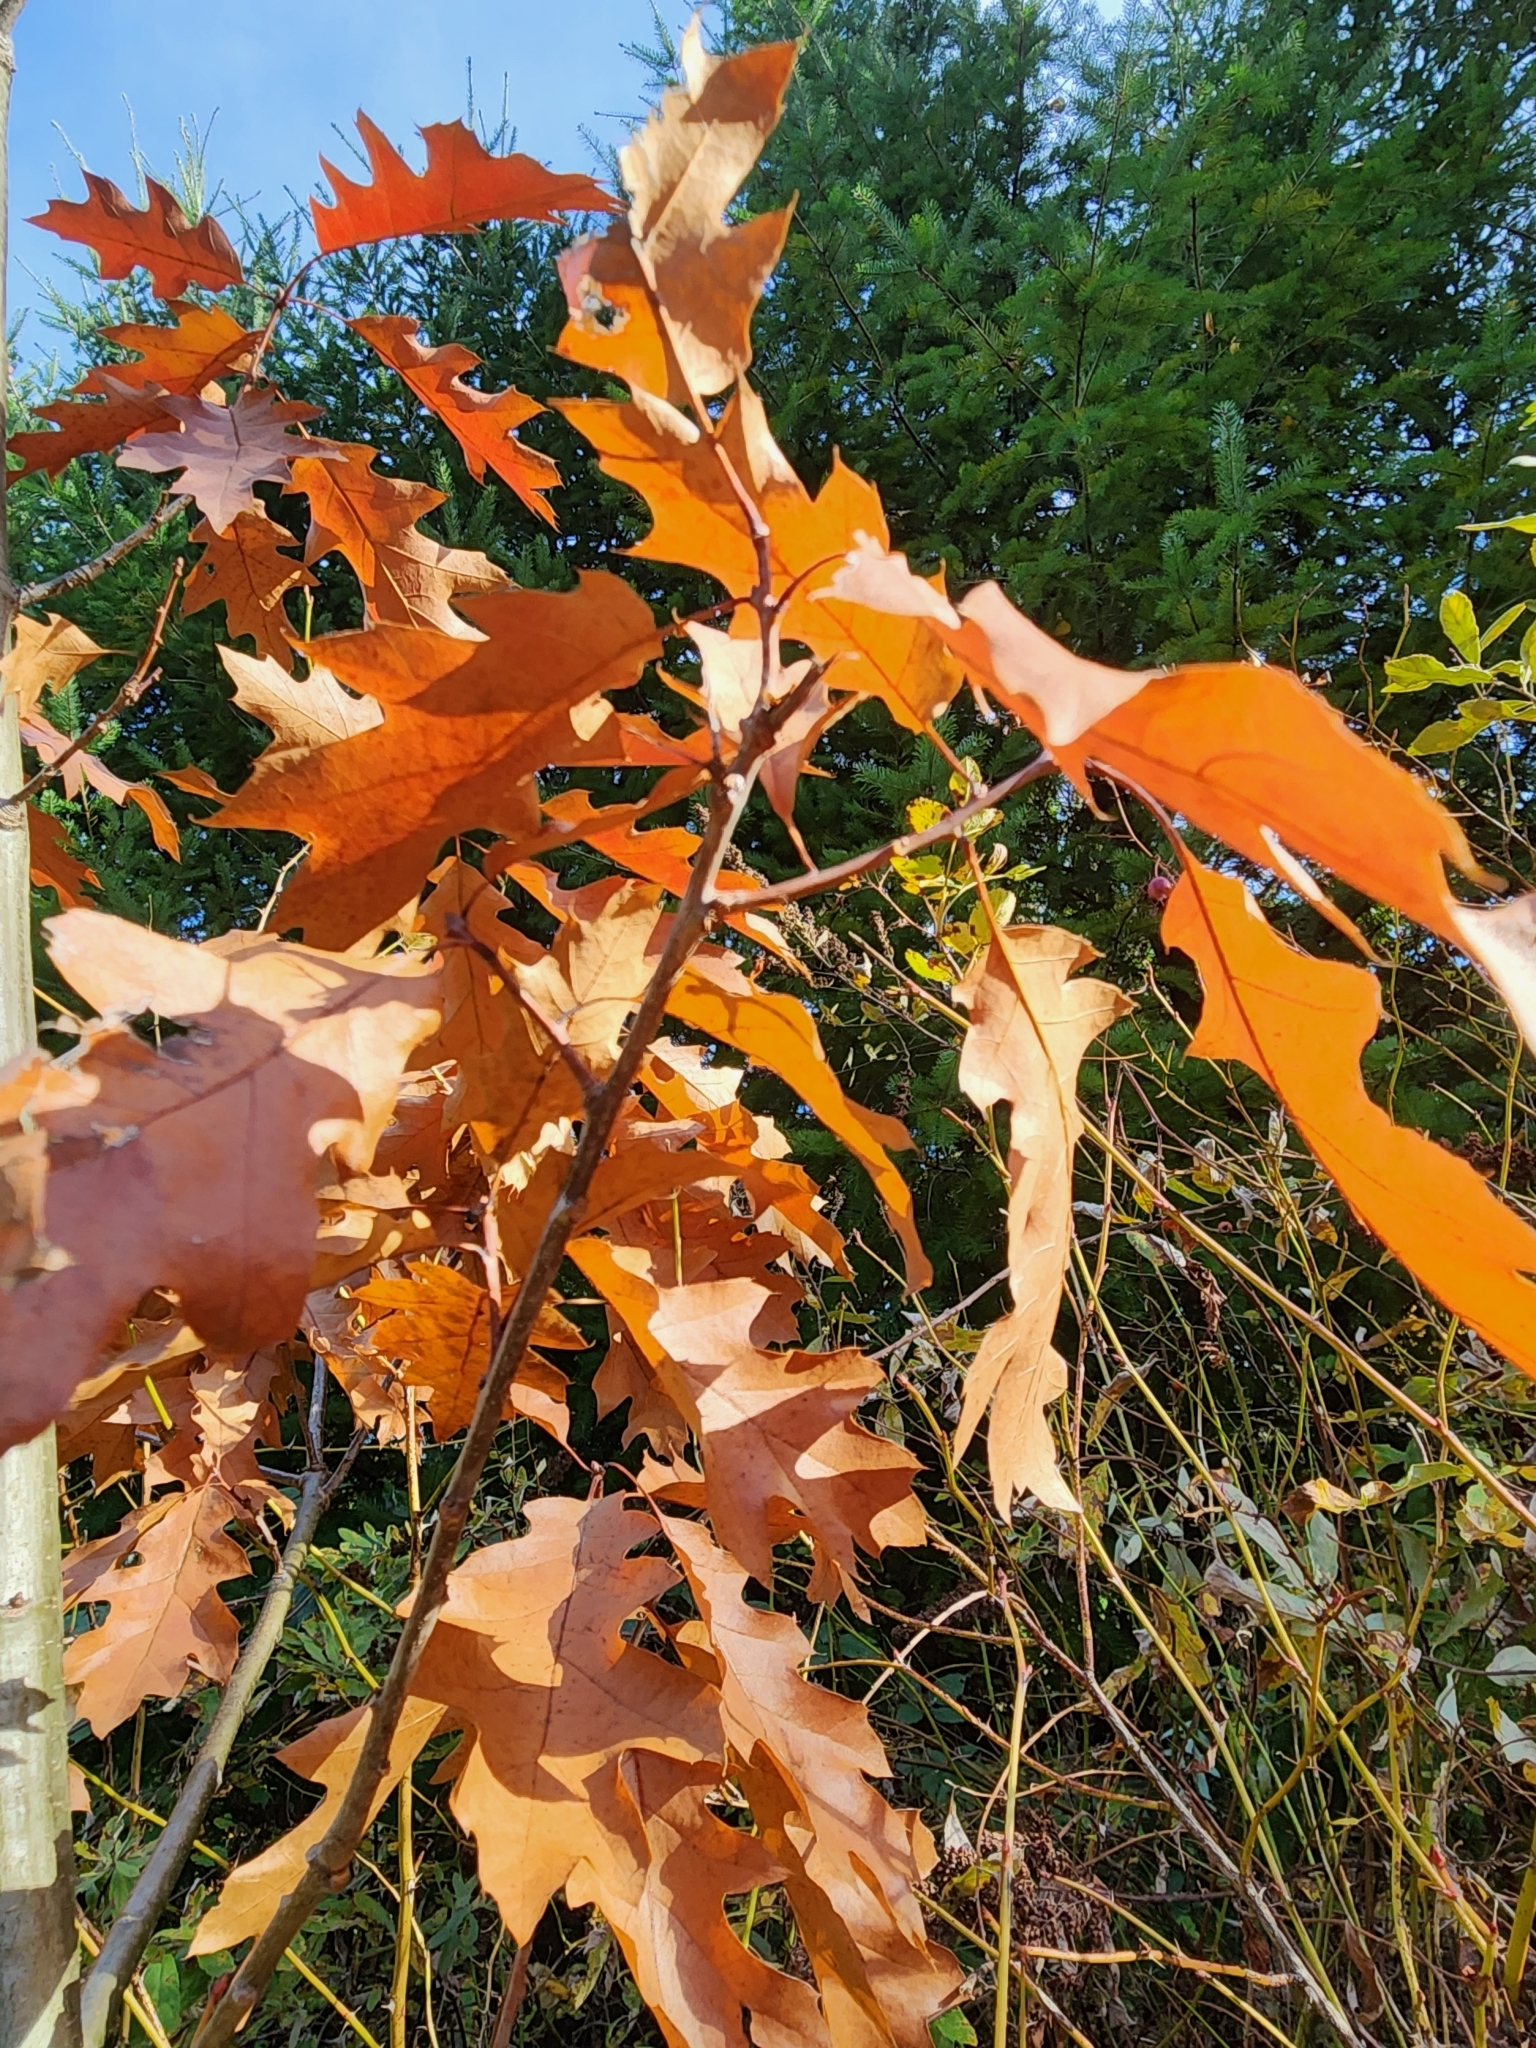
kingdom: Plantae
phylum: Tracheophyta
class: Magnoliopsida
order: Fagales
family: Fagaceae
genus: Quercus
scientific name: Quercus rubra
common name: Red oak
